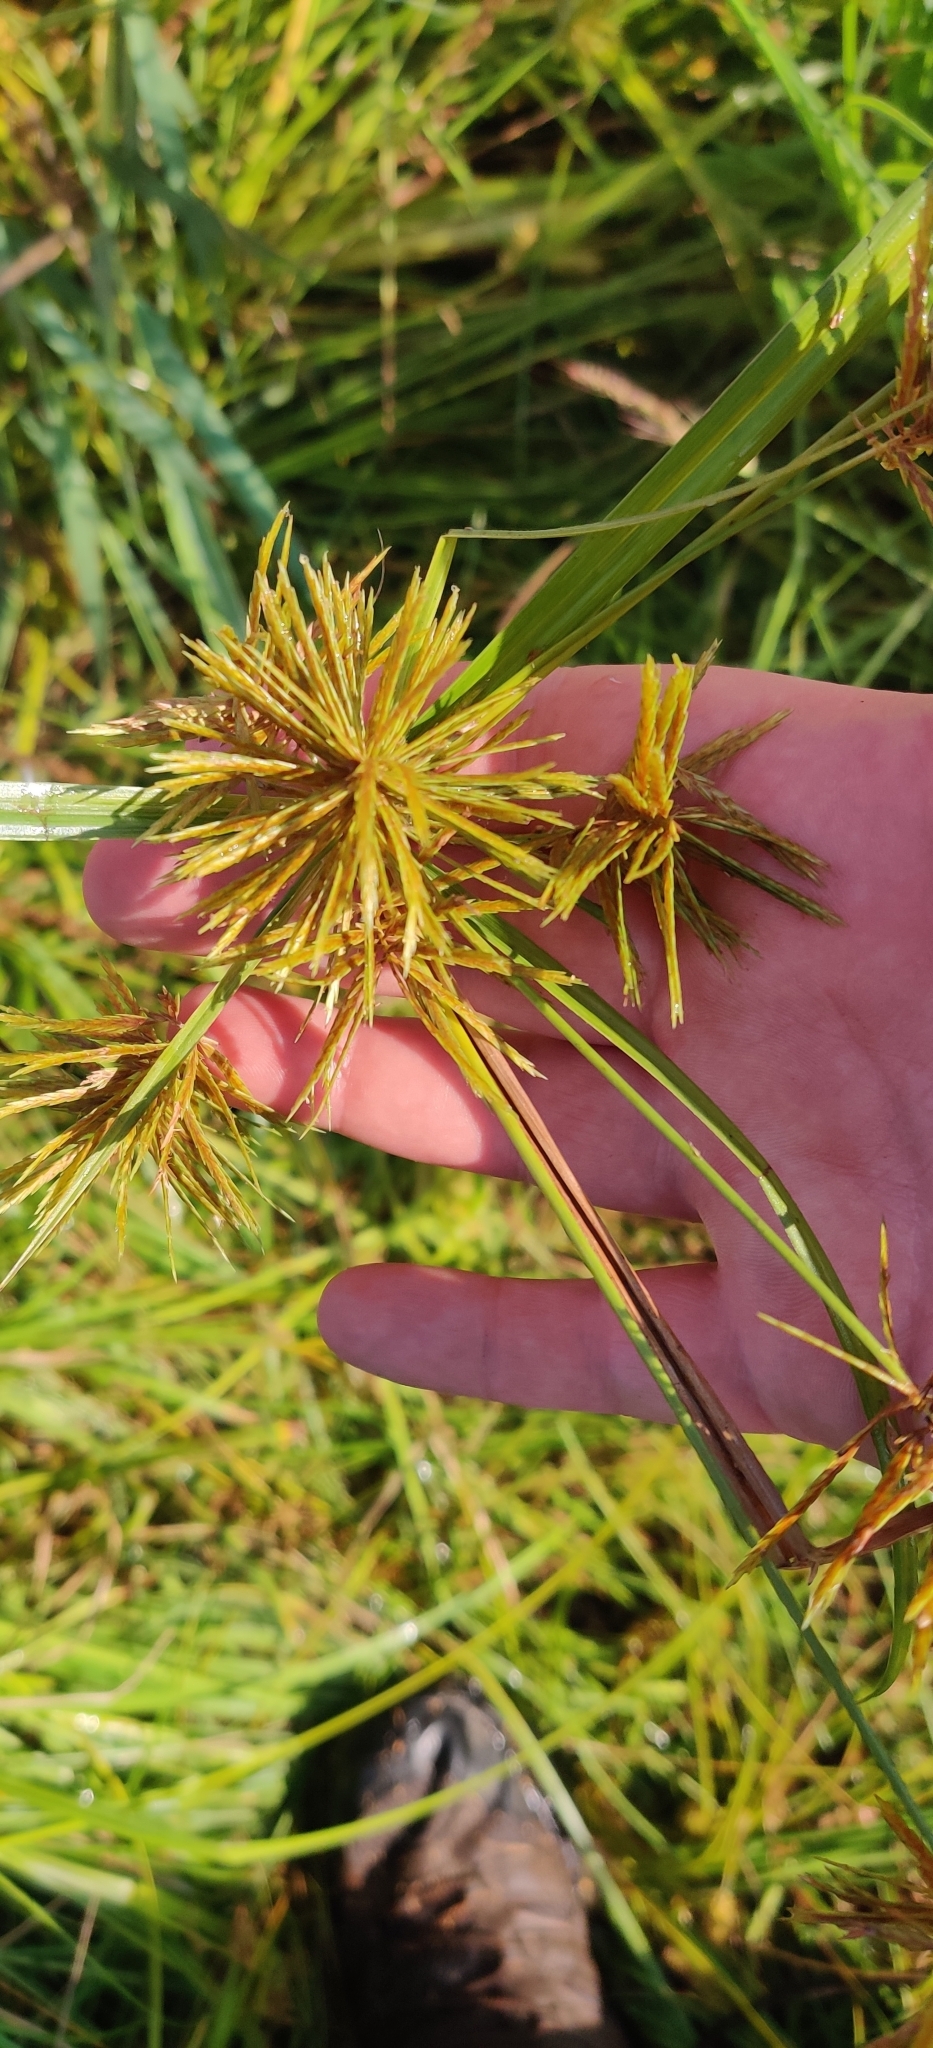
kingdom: Plantae
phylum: Tracheophyta
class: Liliopsida
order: Poales
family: Cyperaceae
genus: Cyperus
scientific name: Cyperus strigosus
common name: False nutsedge
